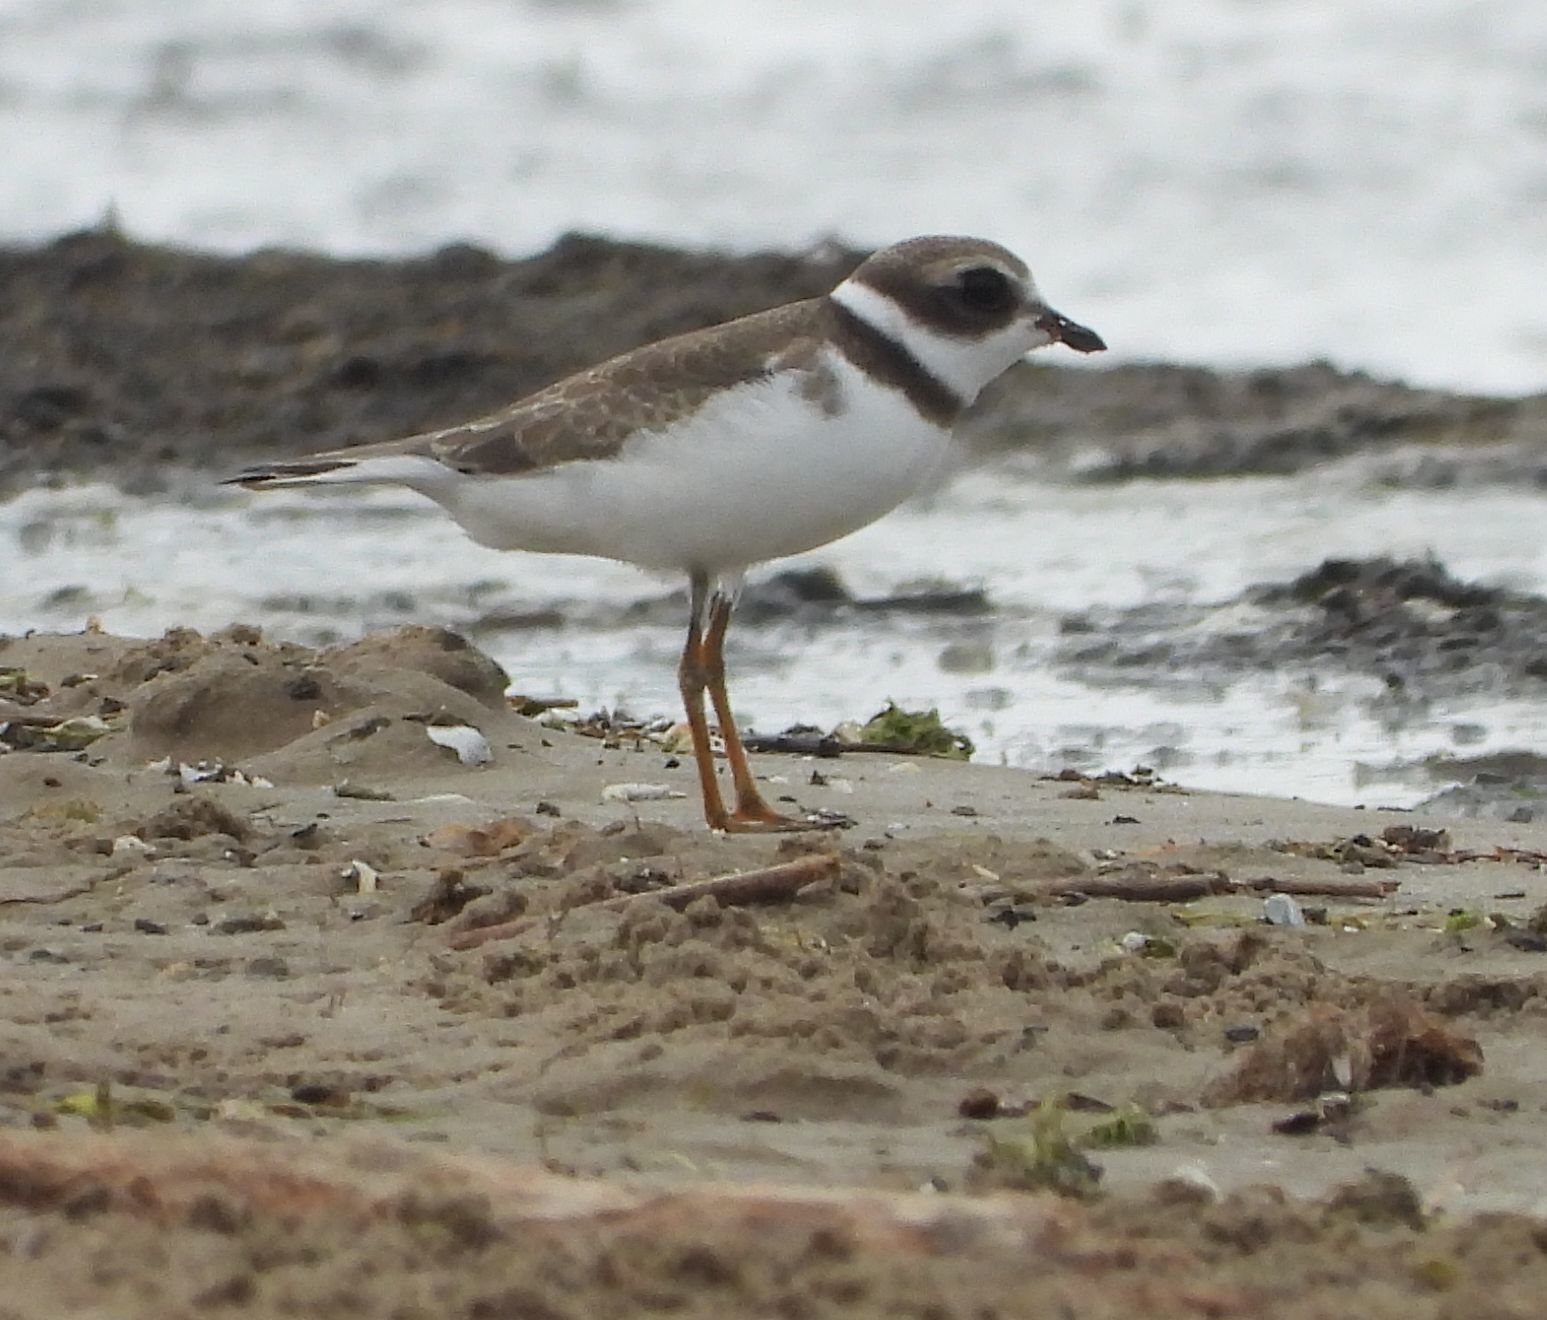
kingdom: Animalia
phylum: Chordata
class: Aves
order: Charadriiformes
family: Charadriidae
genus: Charadrius
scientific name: Charadrius semipalmatus
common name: Semipalmated plover
